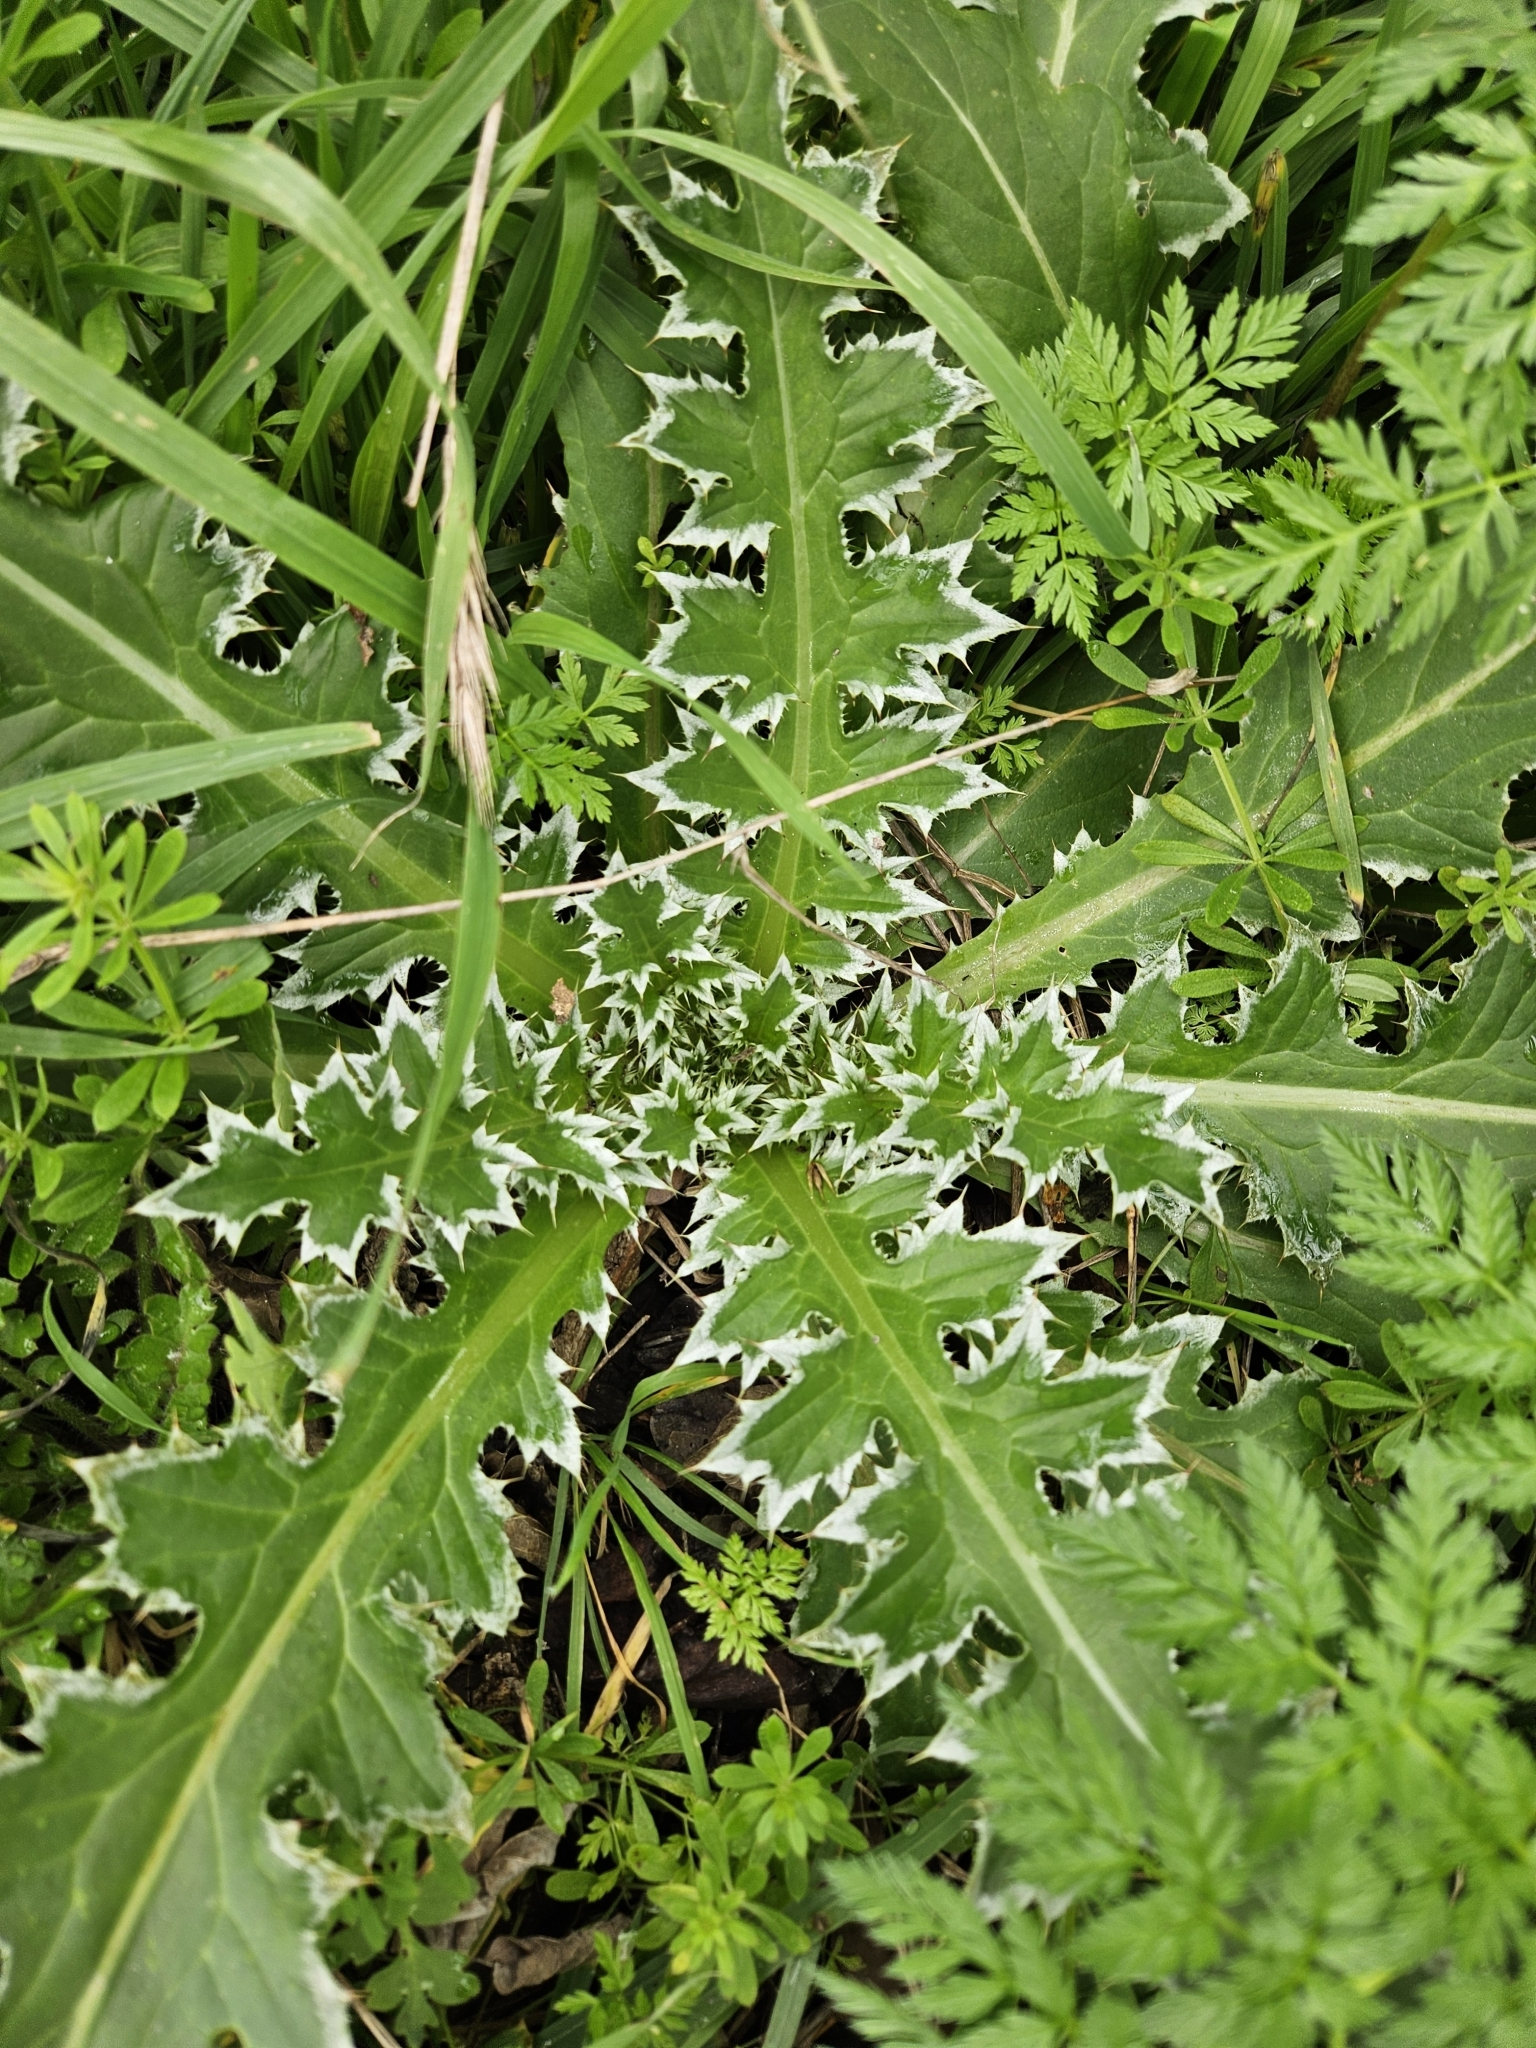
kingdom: Plantae
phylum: Tracheophyta
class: Magnoliopsida
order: Asterales
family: Asteraceae
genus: Carduus
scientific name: Carduus nutans
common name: Musk thistle
